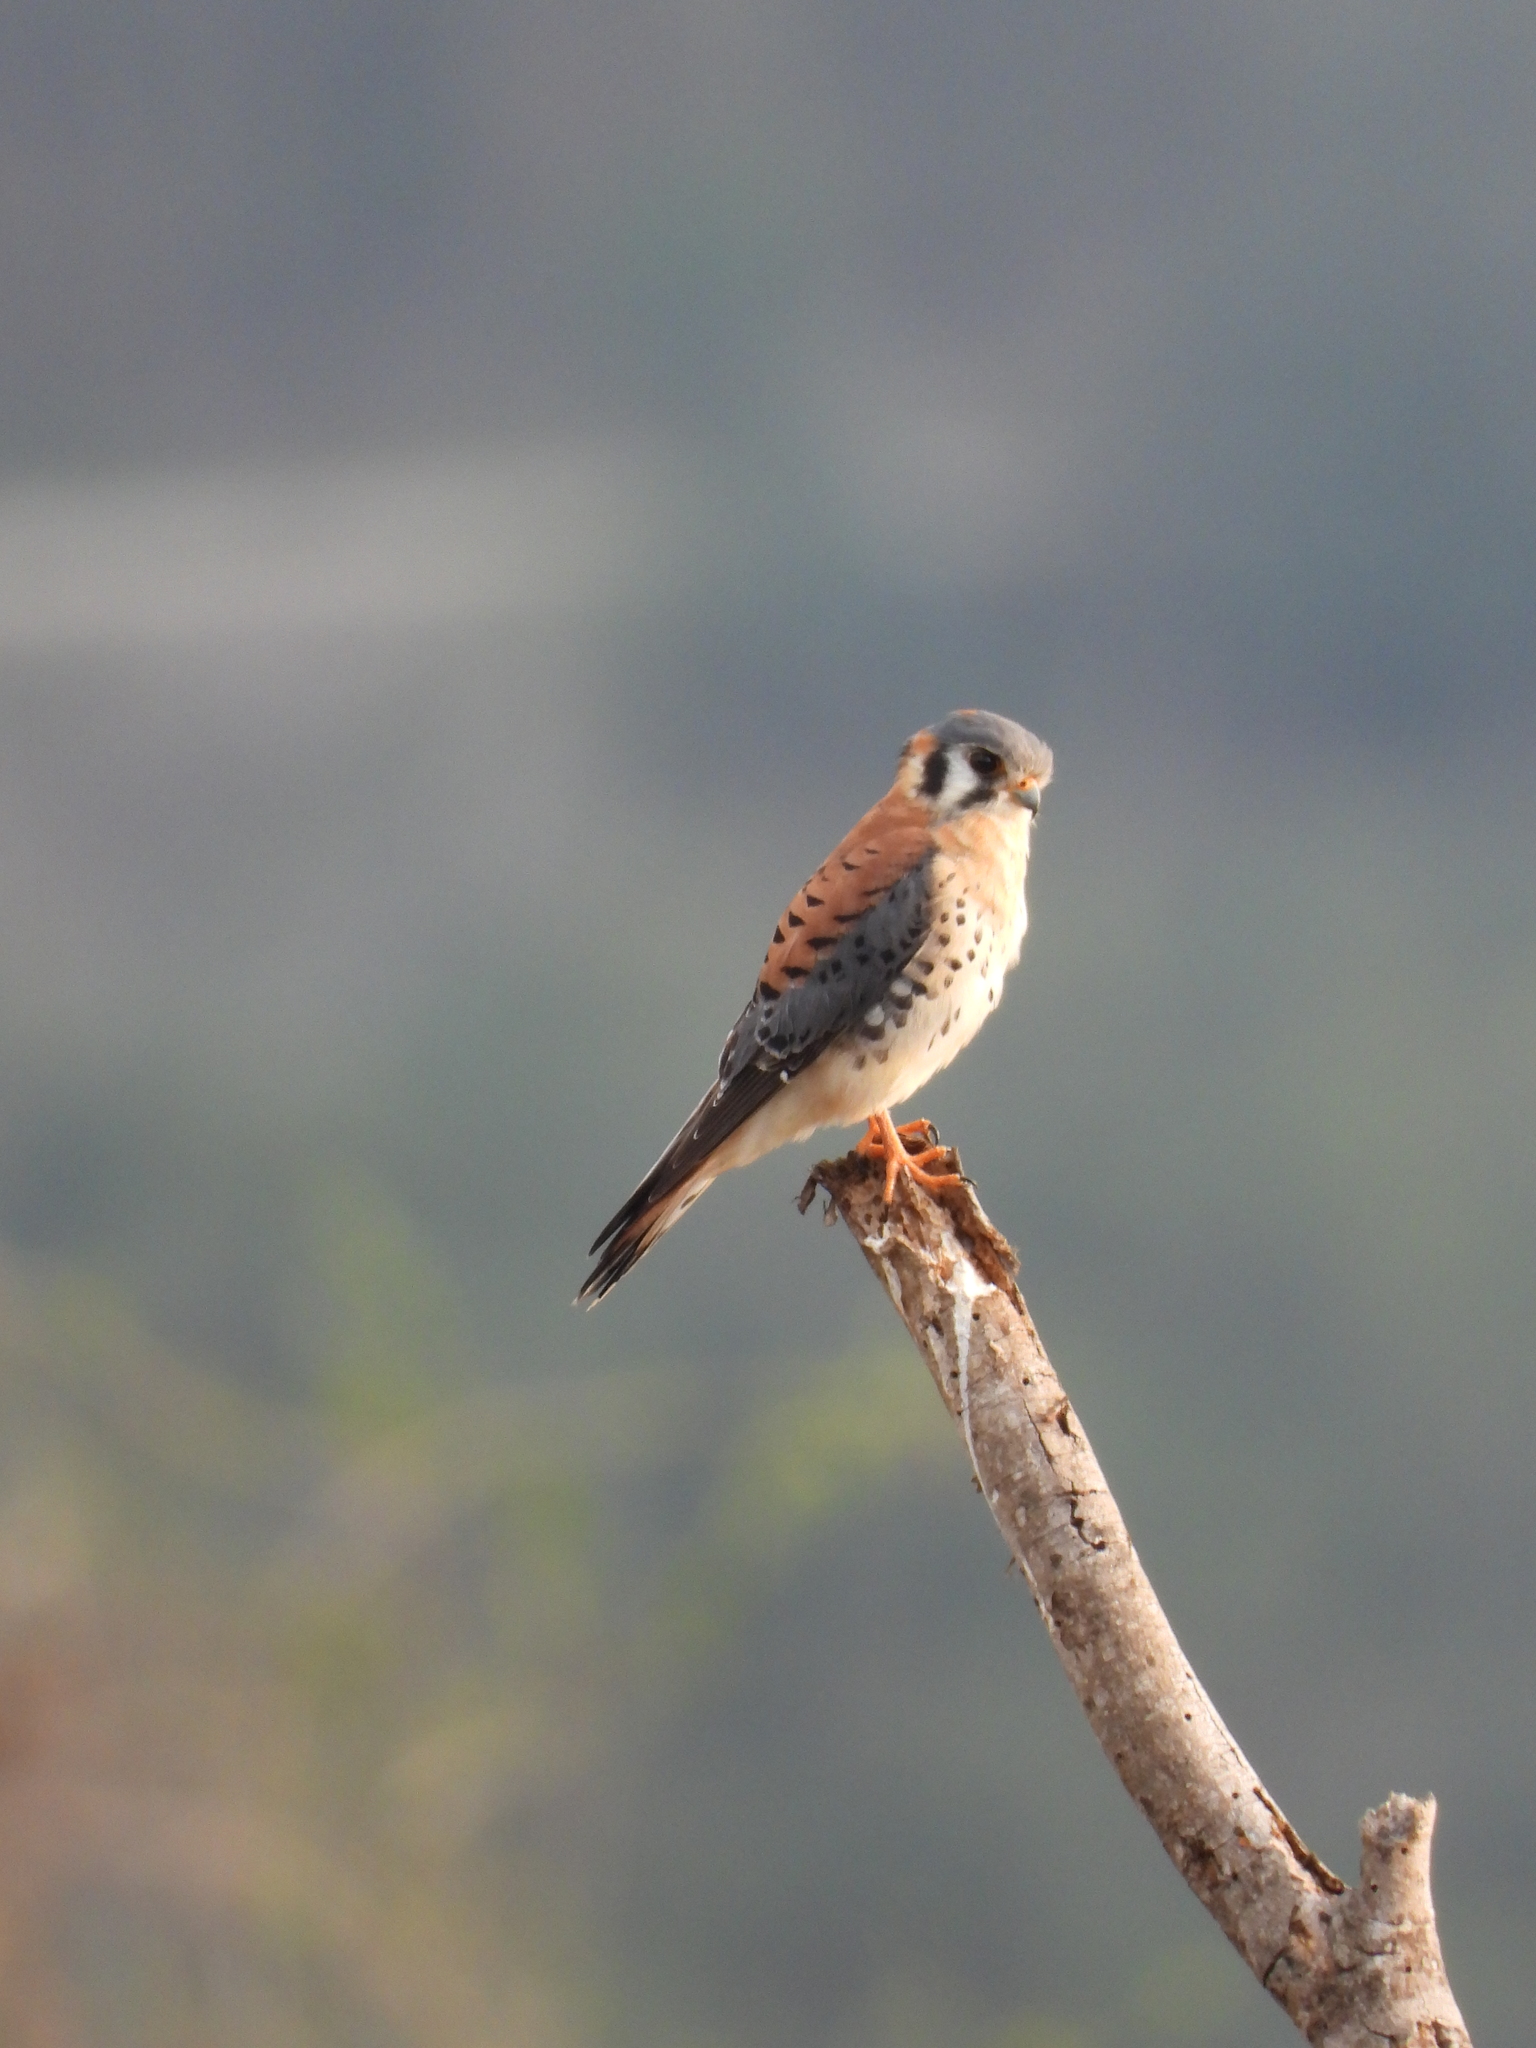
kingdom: Animalia
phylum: Chordata
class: Aves
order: Falconiformes
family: Falconidae
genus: Falco
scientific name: Falco sparverius
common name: American kestrel
